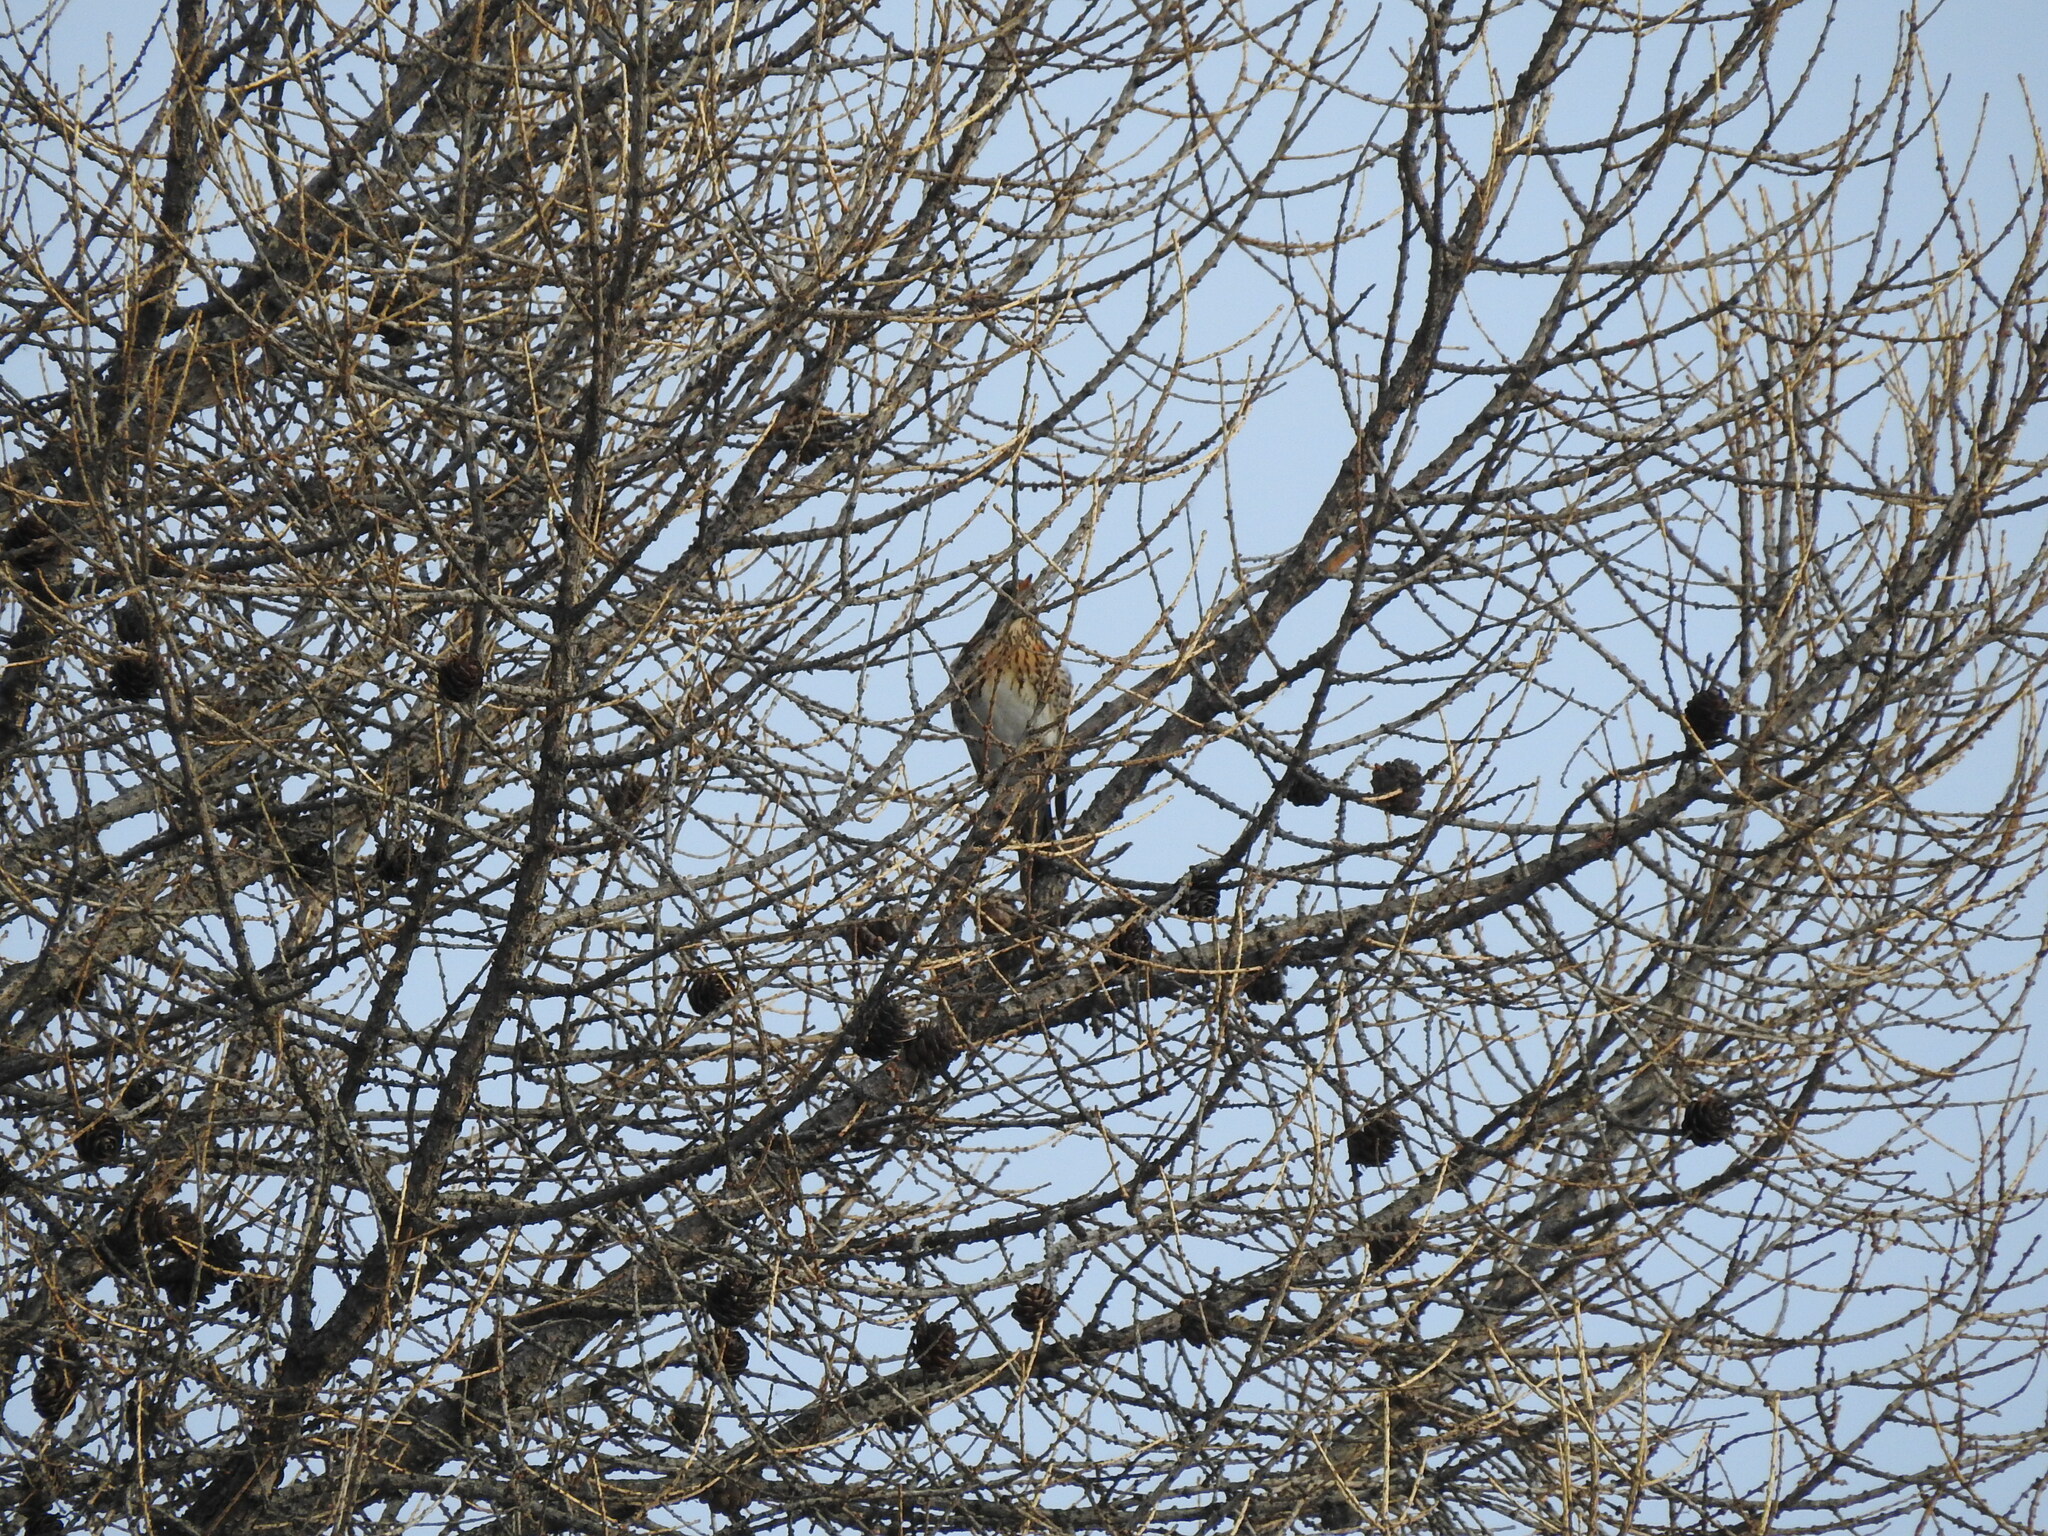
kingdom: Animalia
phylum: Chordata
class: Aves
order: Passeriformes
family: Turdidae
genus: Turdus
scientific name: Turdus pilaris
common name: Fieldfare
